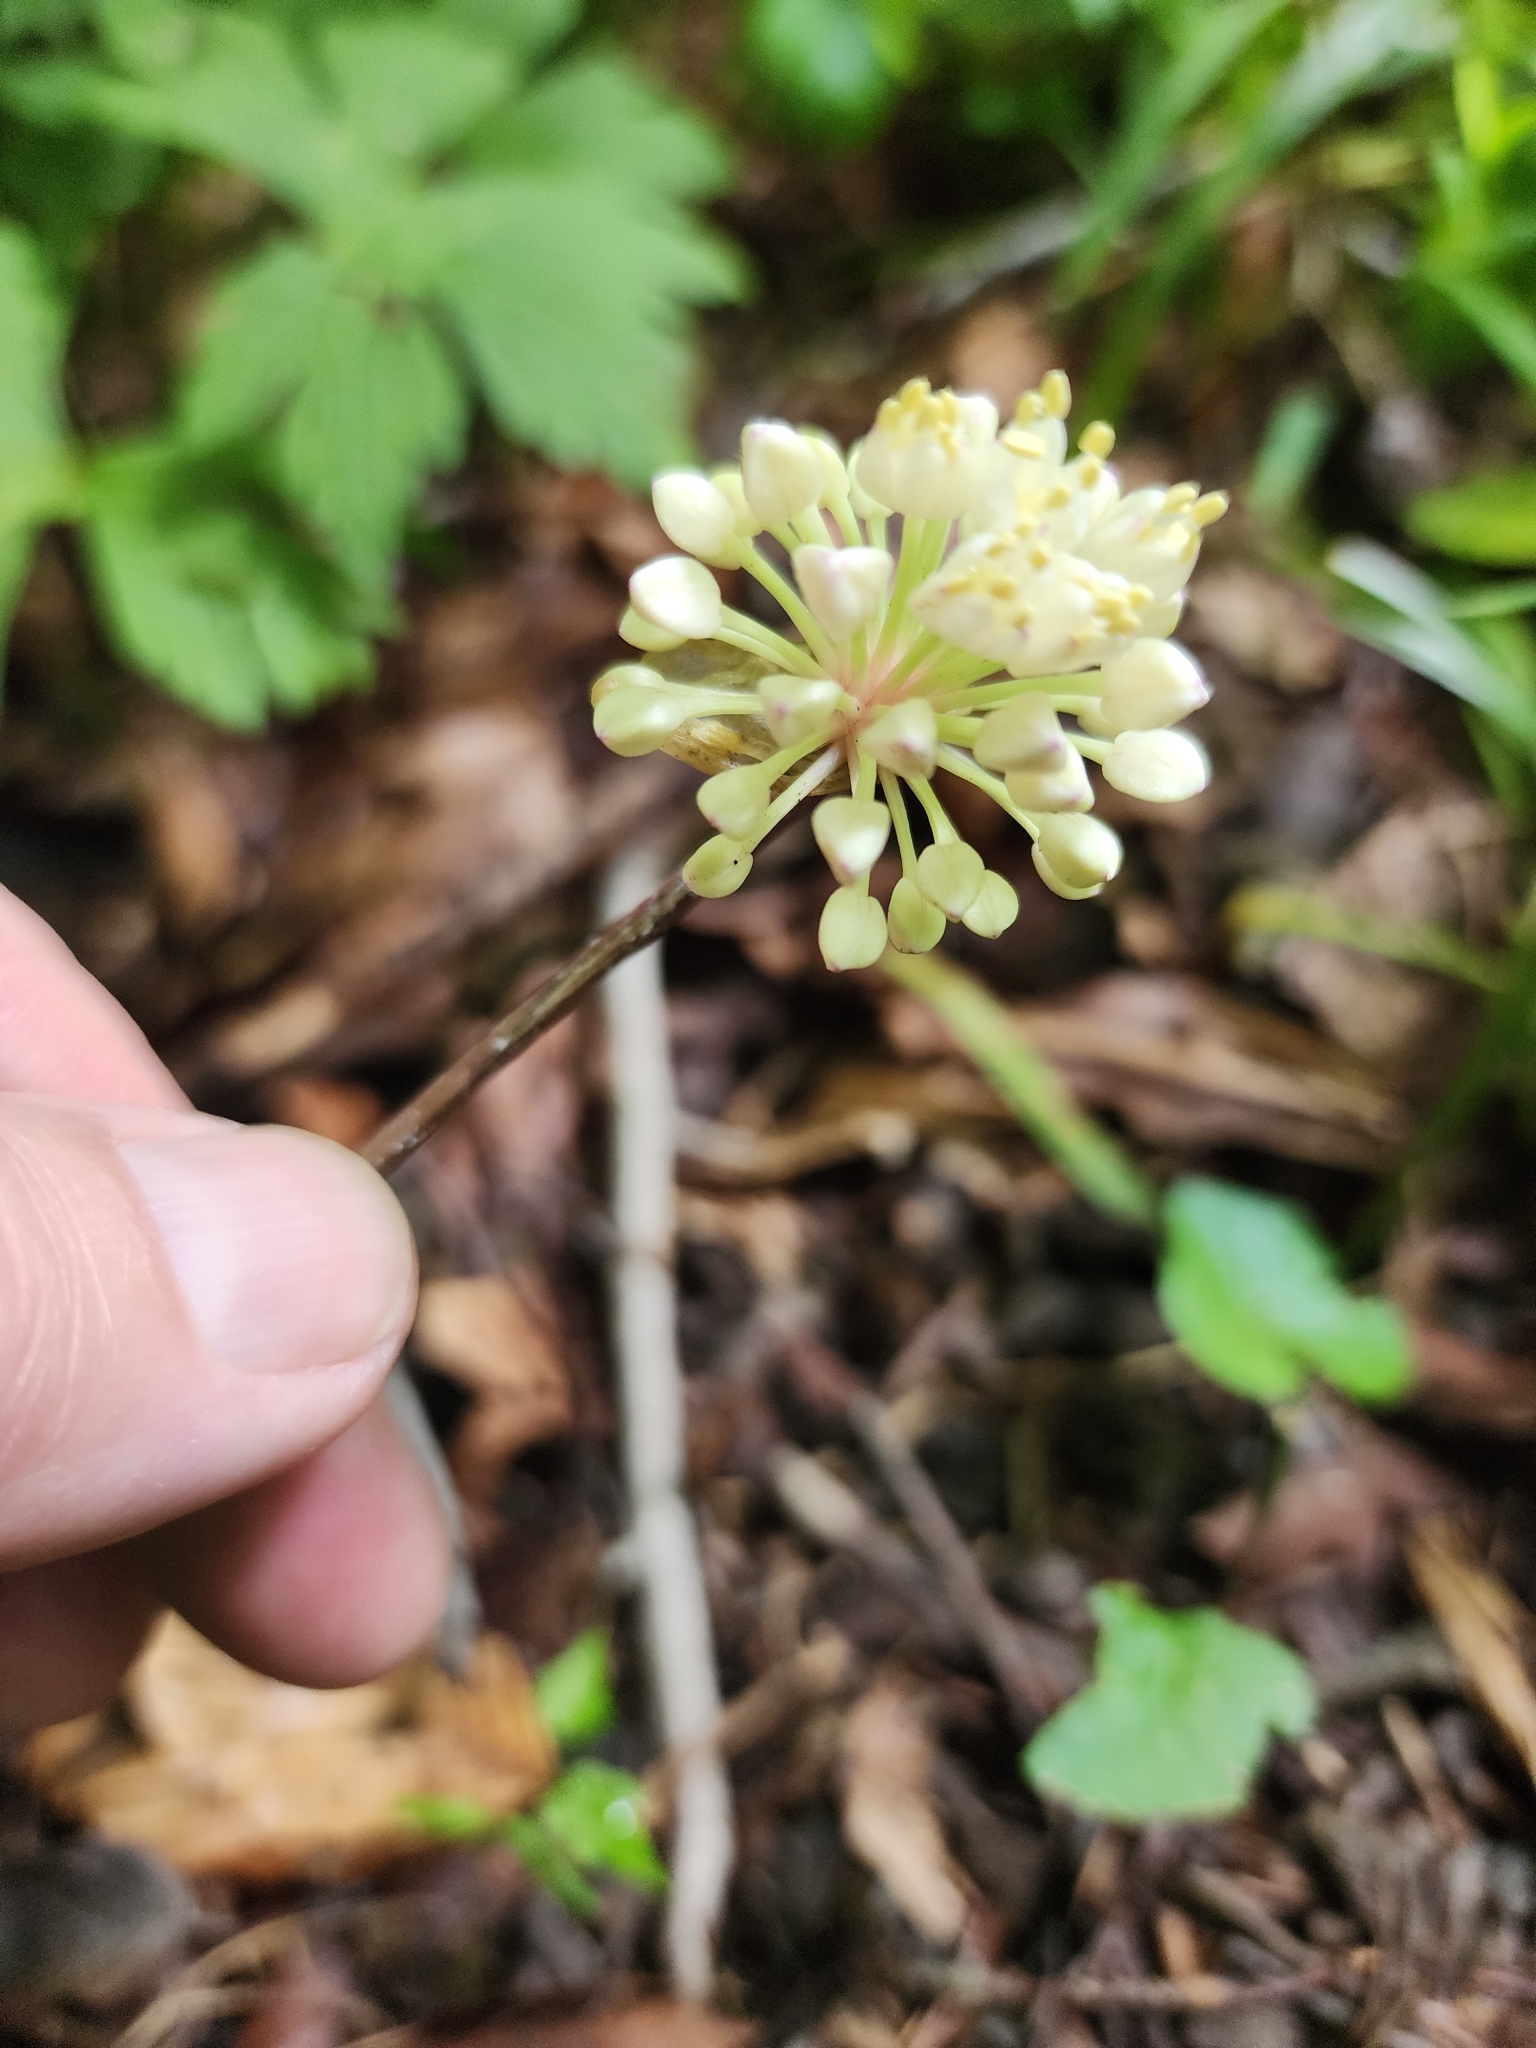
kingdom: Plantae
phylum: Tracheophyta
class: Liliopsida
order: Asparagales
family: Amaryllidaceae
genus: Allium
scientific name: Allium tricoccum
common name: Ramp
